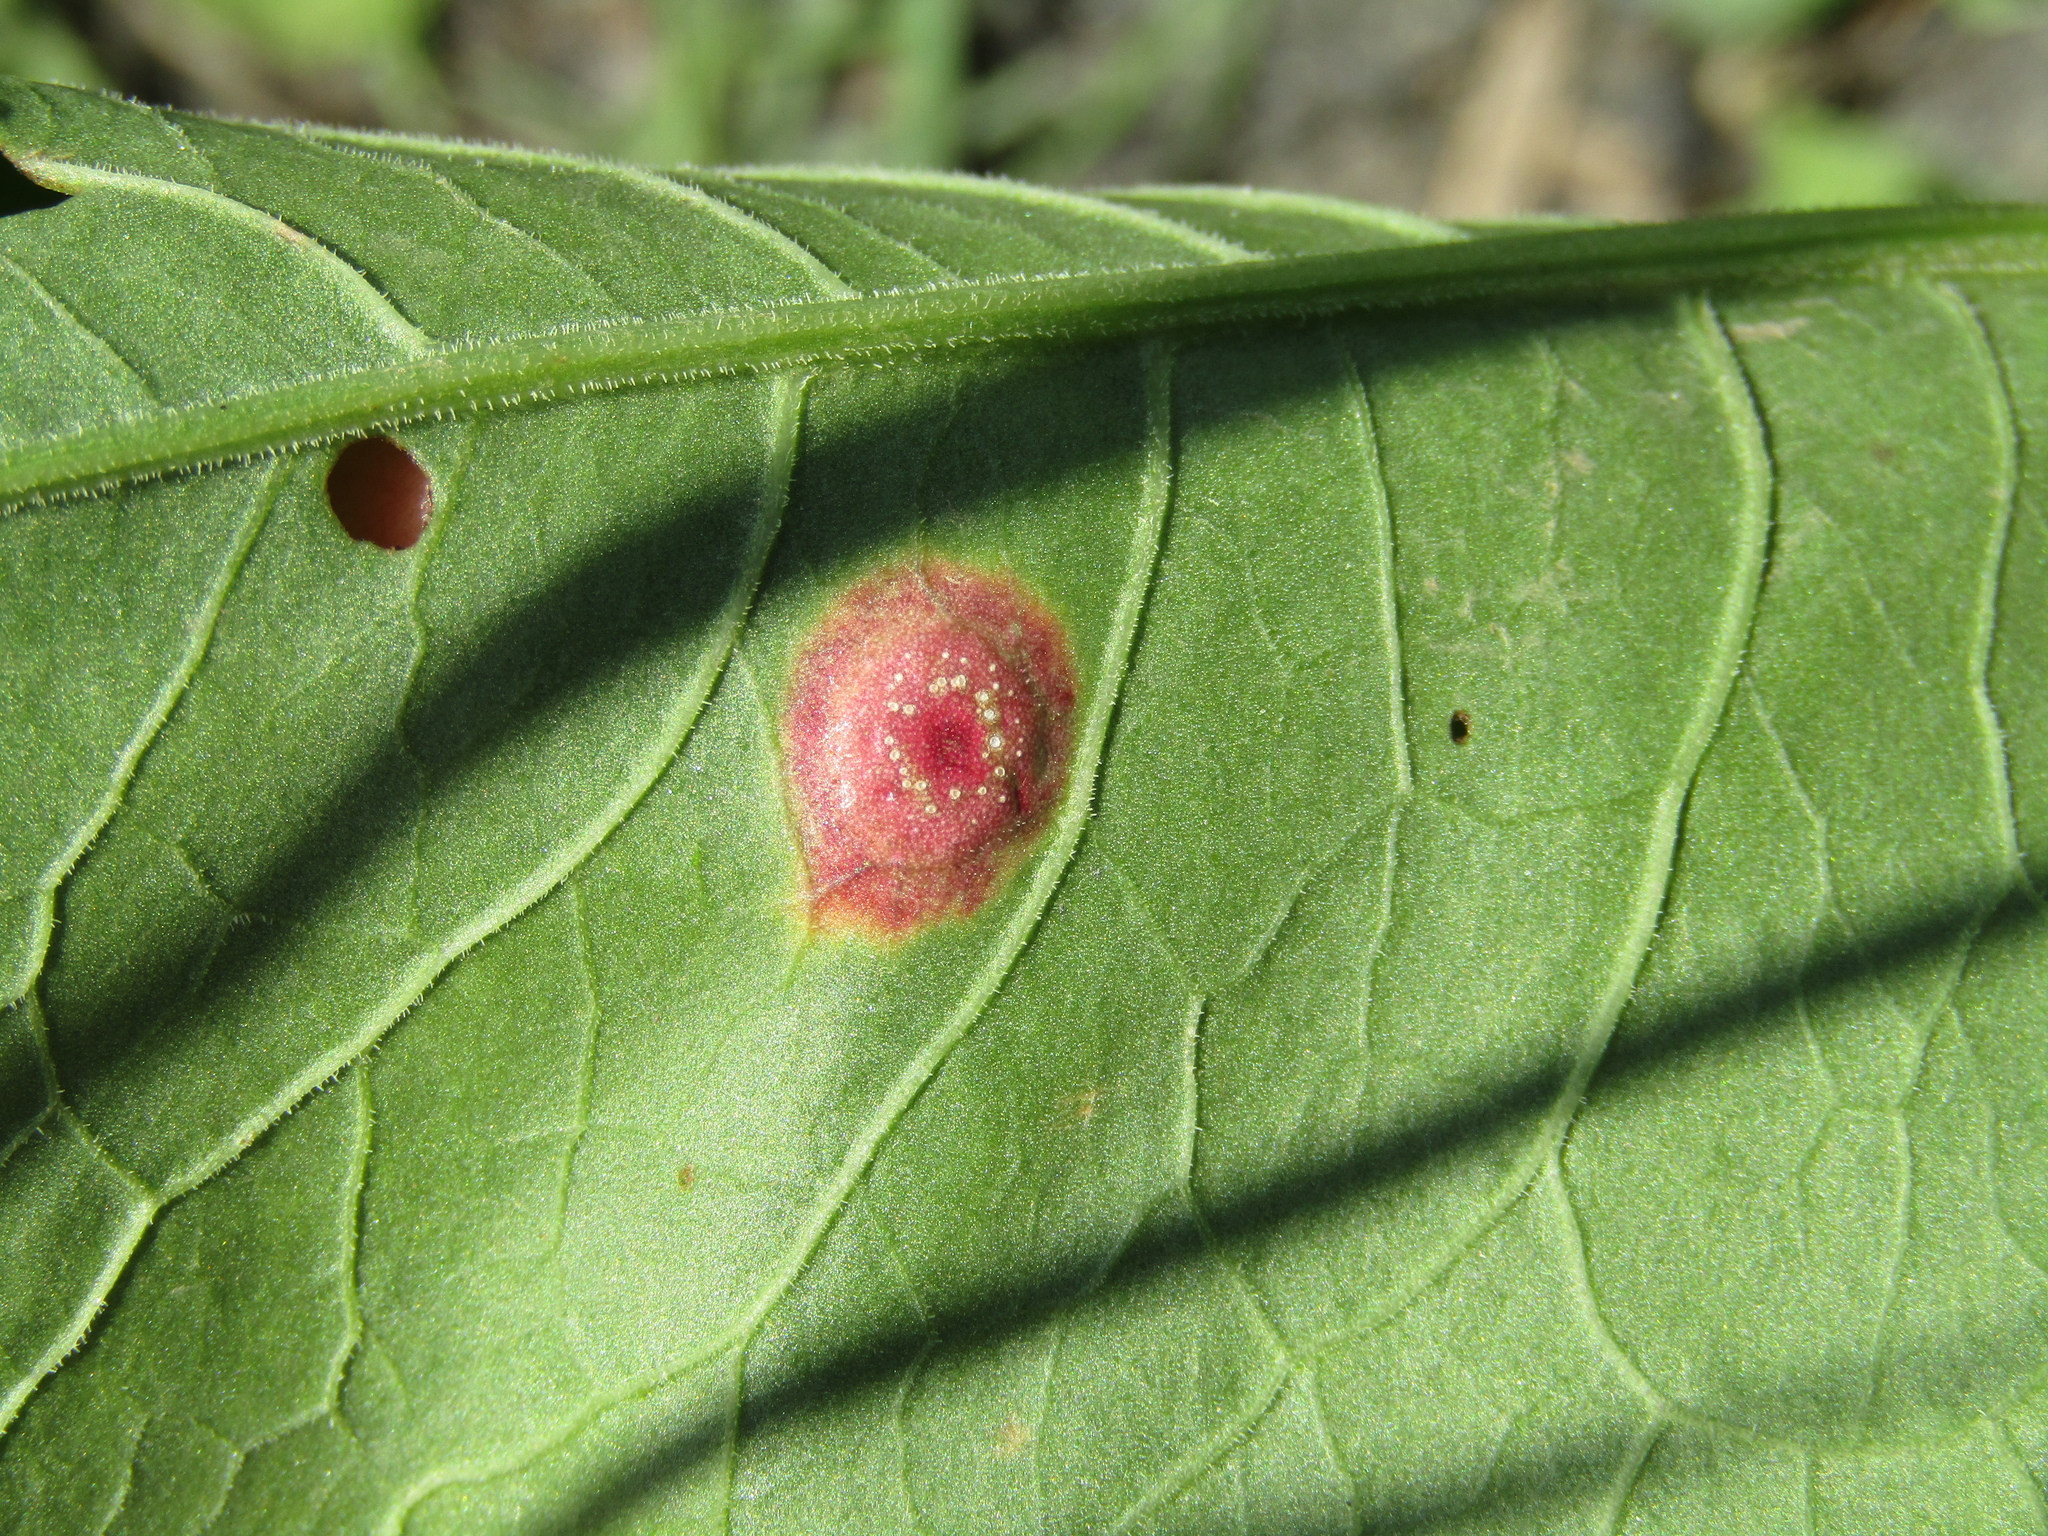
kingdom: Fungi
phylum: Basidiomycota
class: Pucciniomycetes
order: Pucciniales
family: Pucciniaceae
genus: Puccinia
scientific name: Puccinia phragmitis
